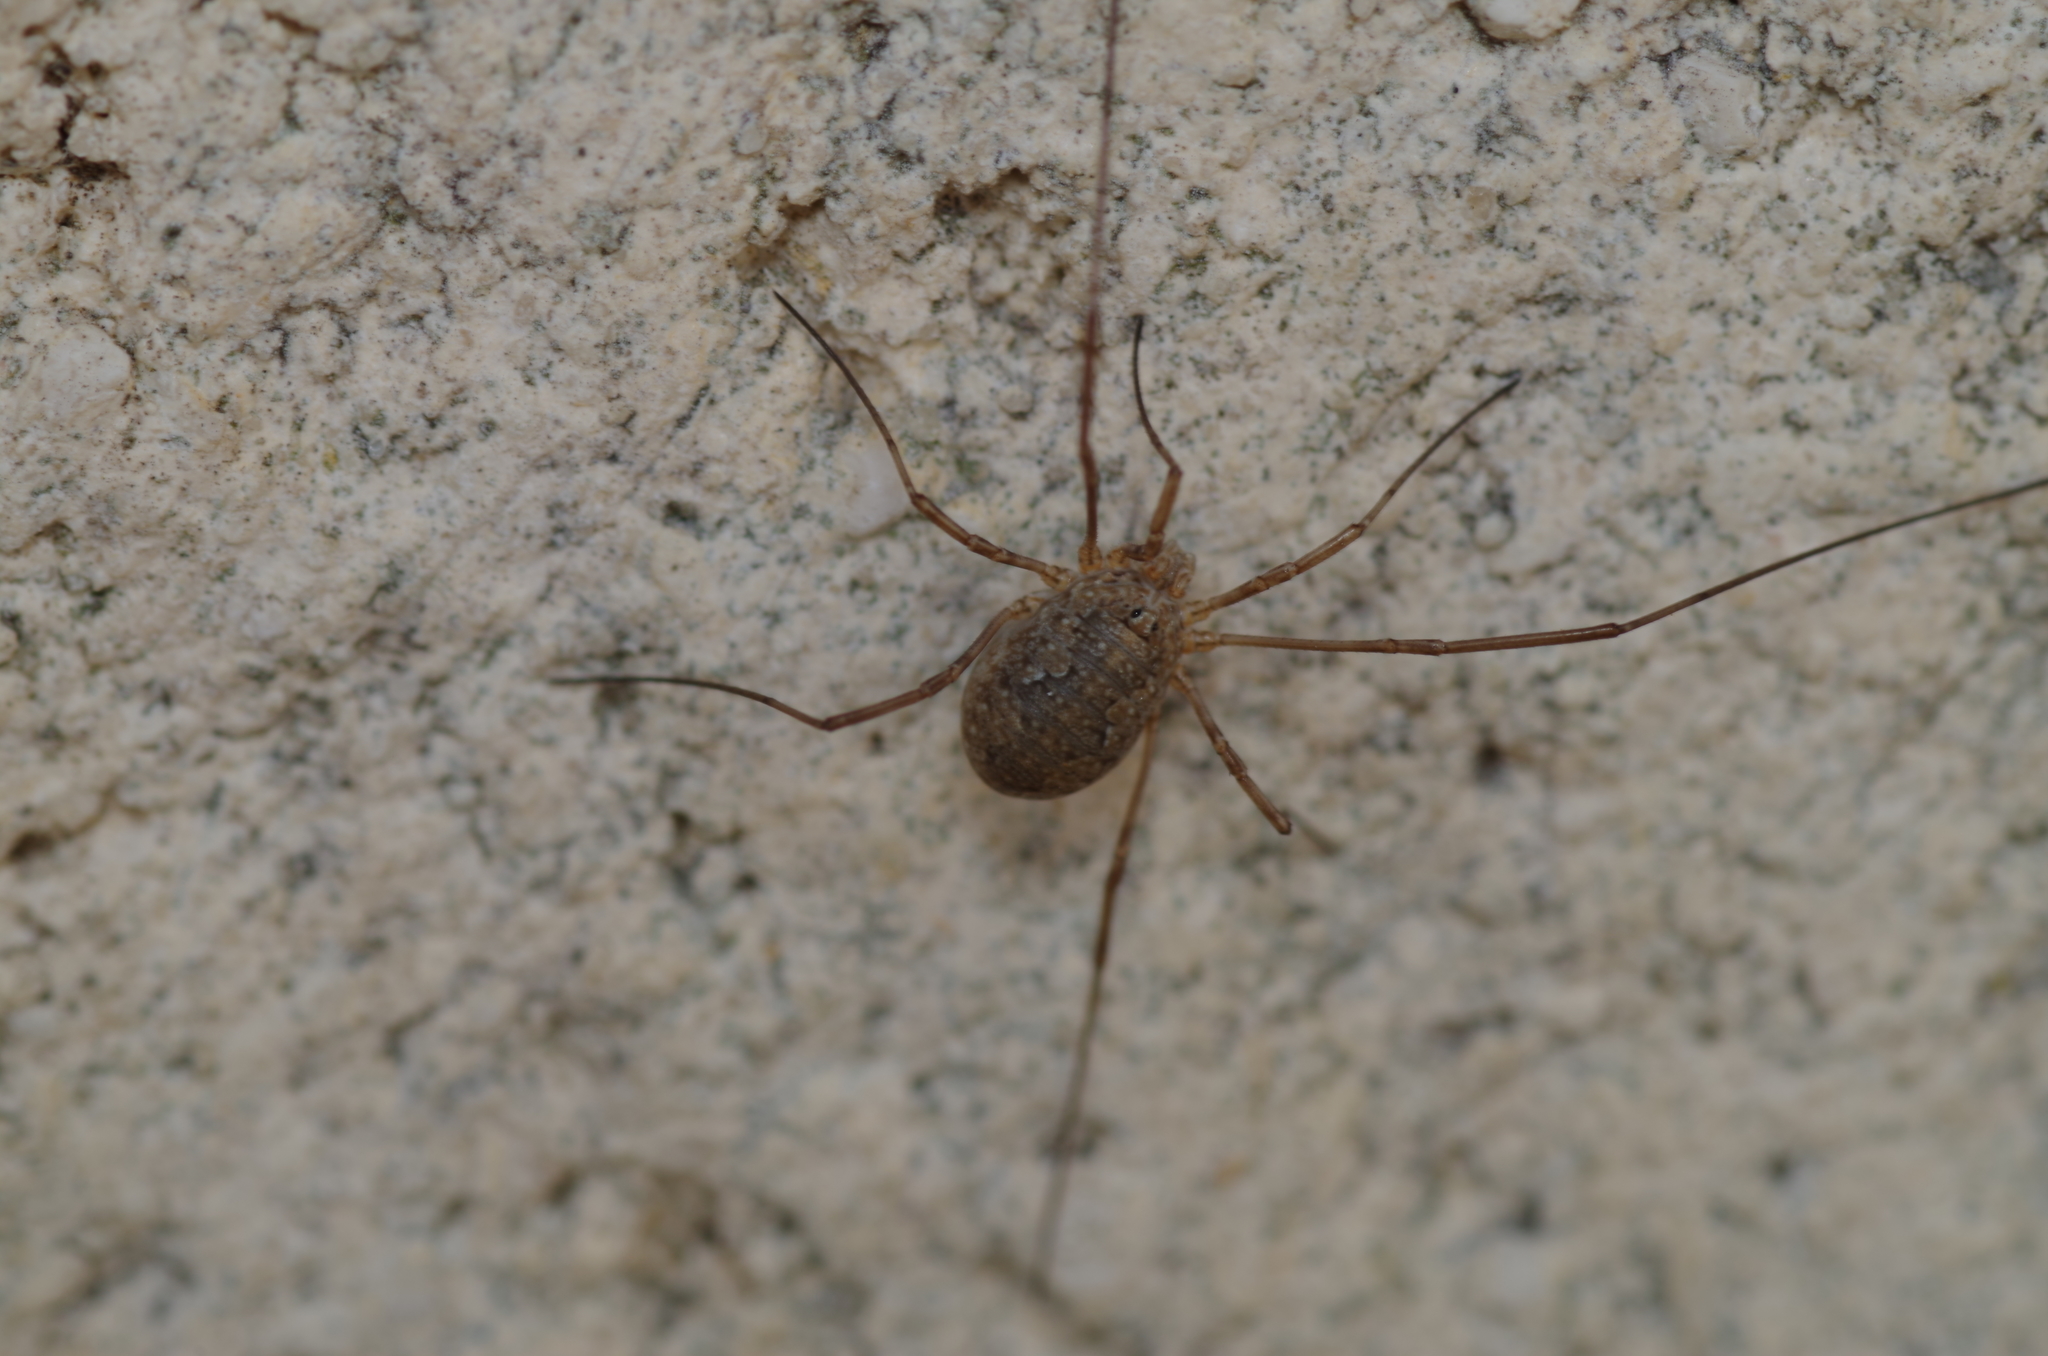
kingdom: Animalia
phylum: Arthropoda
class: Arachnida
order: Opiliones
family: Phalangiidae
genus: Phalangium
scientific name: Phalangium opilio
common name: Daddy longleg
